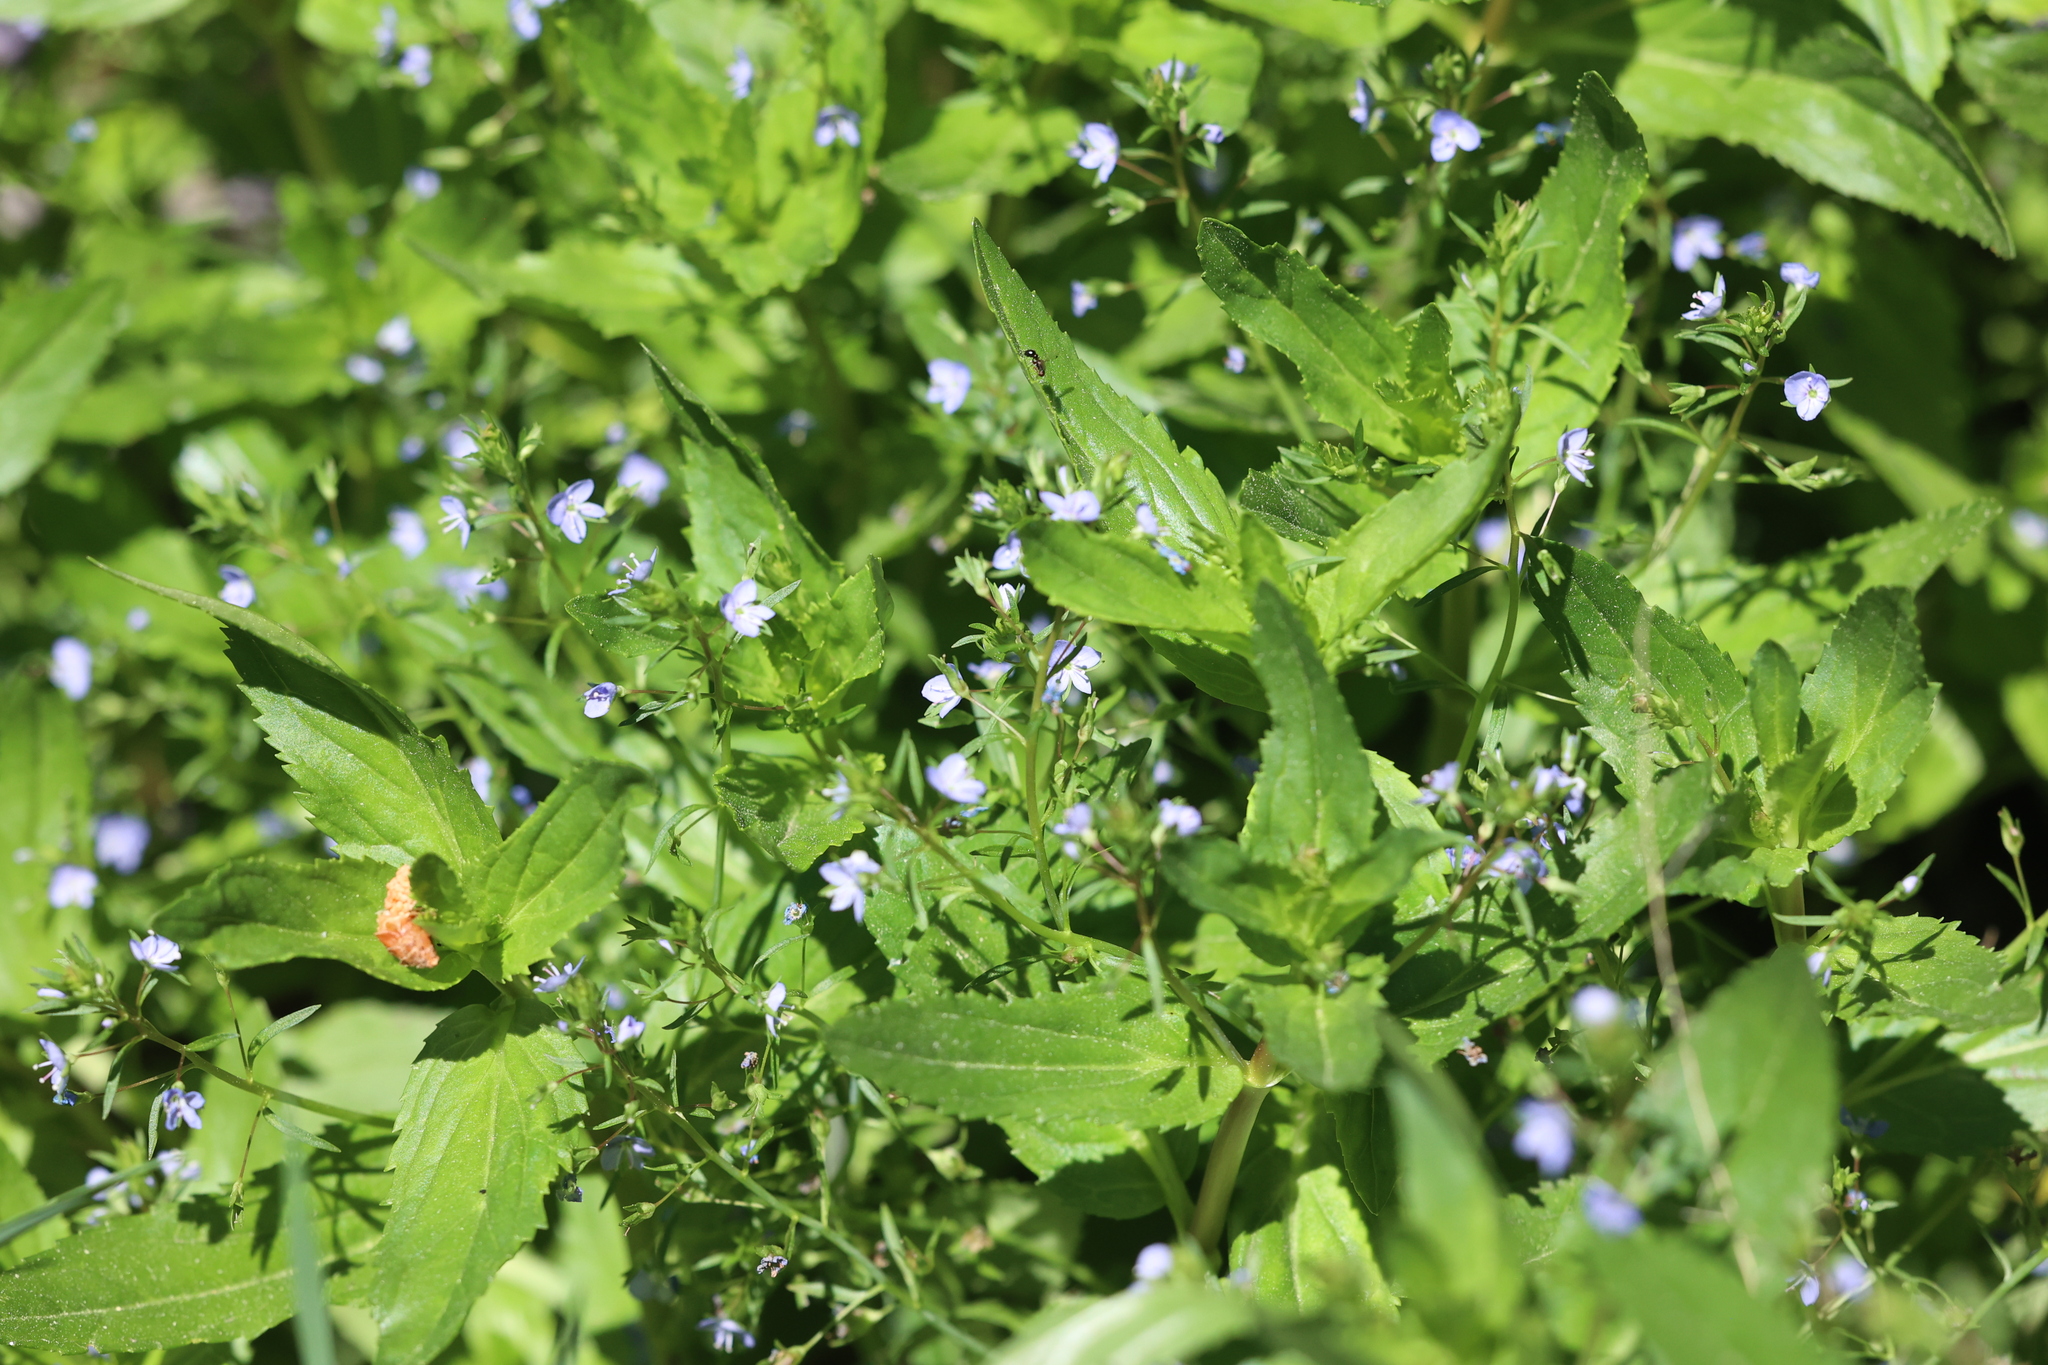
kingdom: Plantae
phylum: Tracheophyta
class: Magnoliopsida
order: Lamiales
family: Plantaginaceae
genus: Veronica
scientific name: Veronica anagallis-aquatica
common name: Water speedwell
